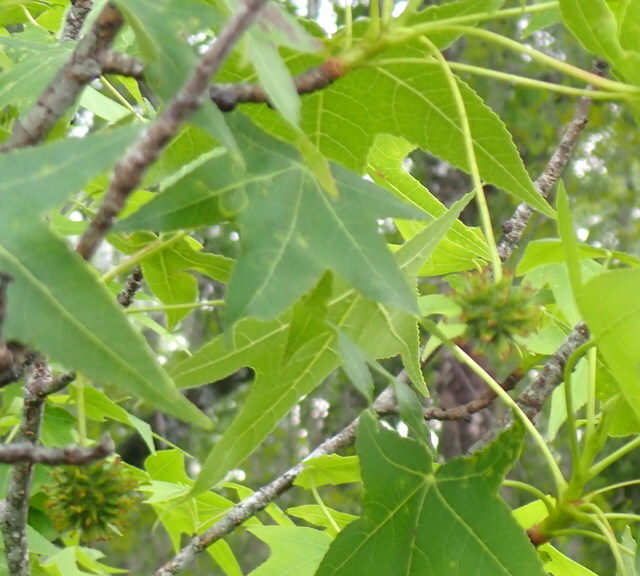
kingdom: Plantae
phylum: Tracheophyta
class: Magnoliopsida
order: Saxifragales
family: Altingiaceae
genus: Liquidambar
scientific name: Liquidambar styraciflua
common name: Sweet gum
